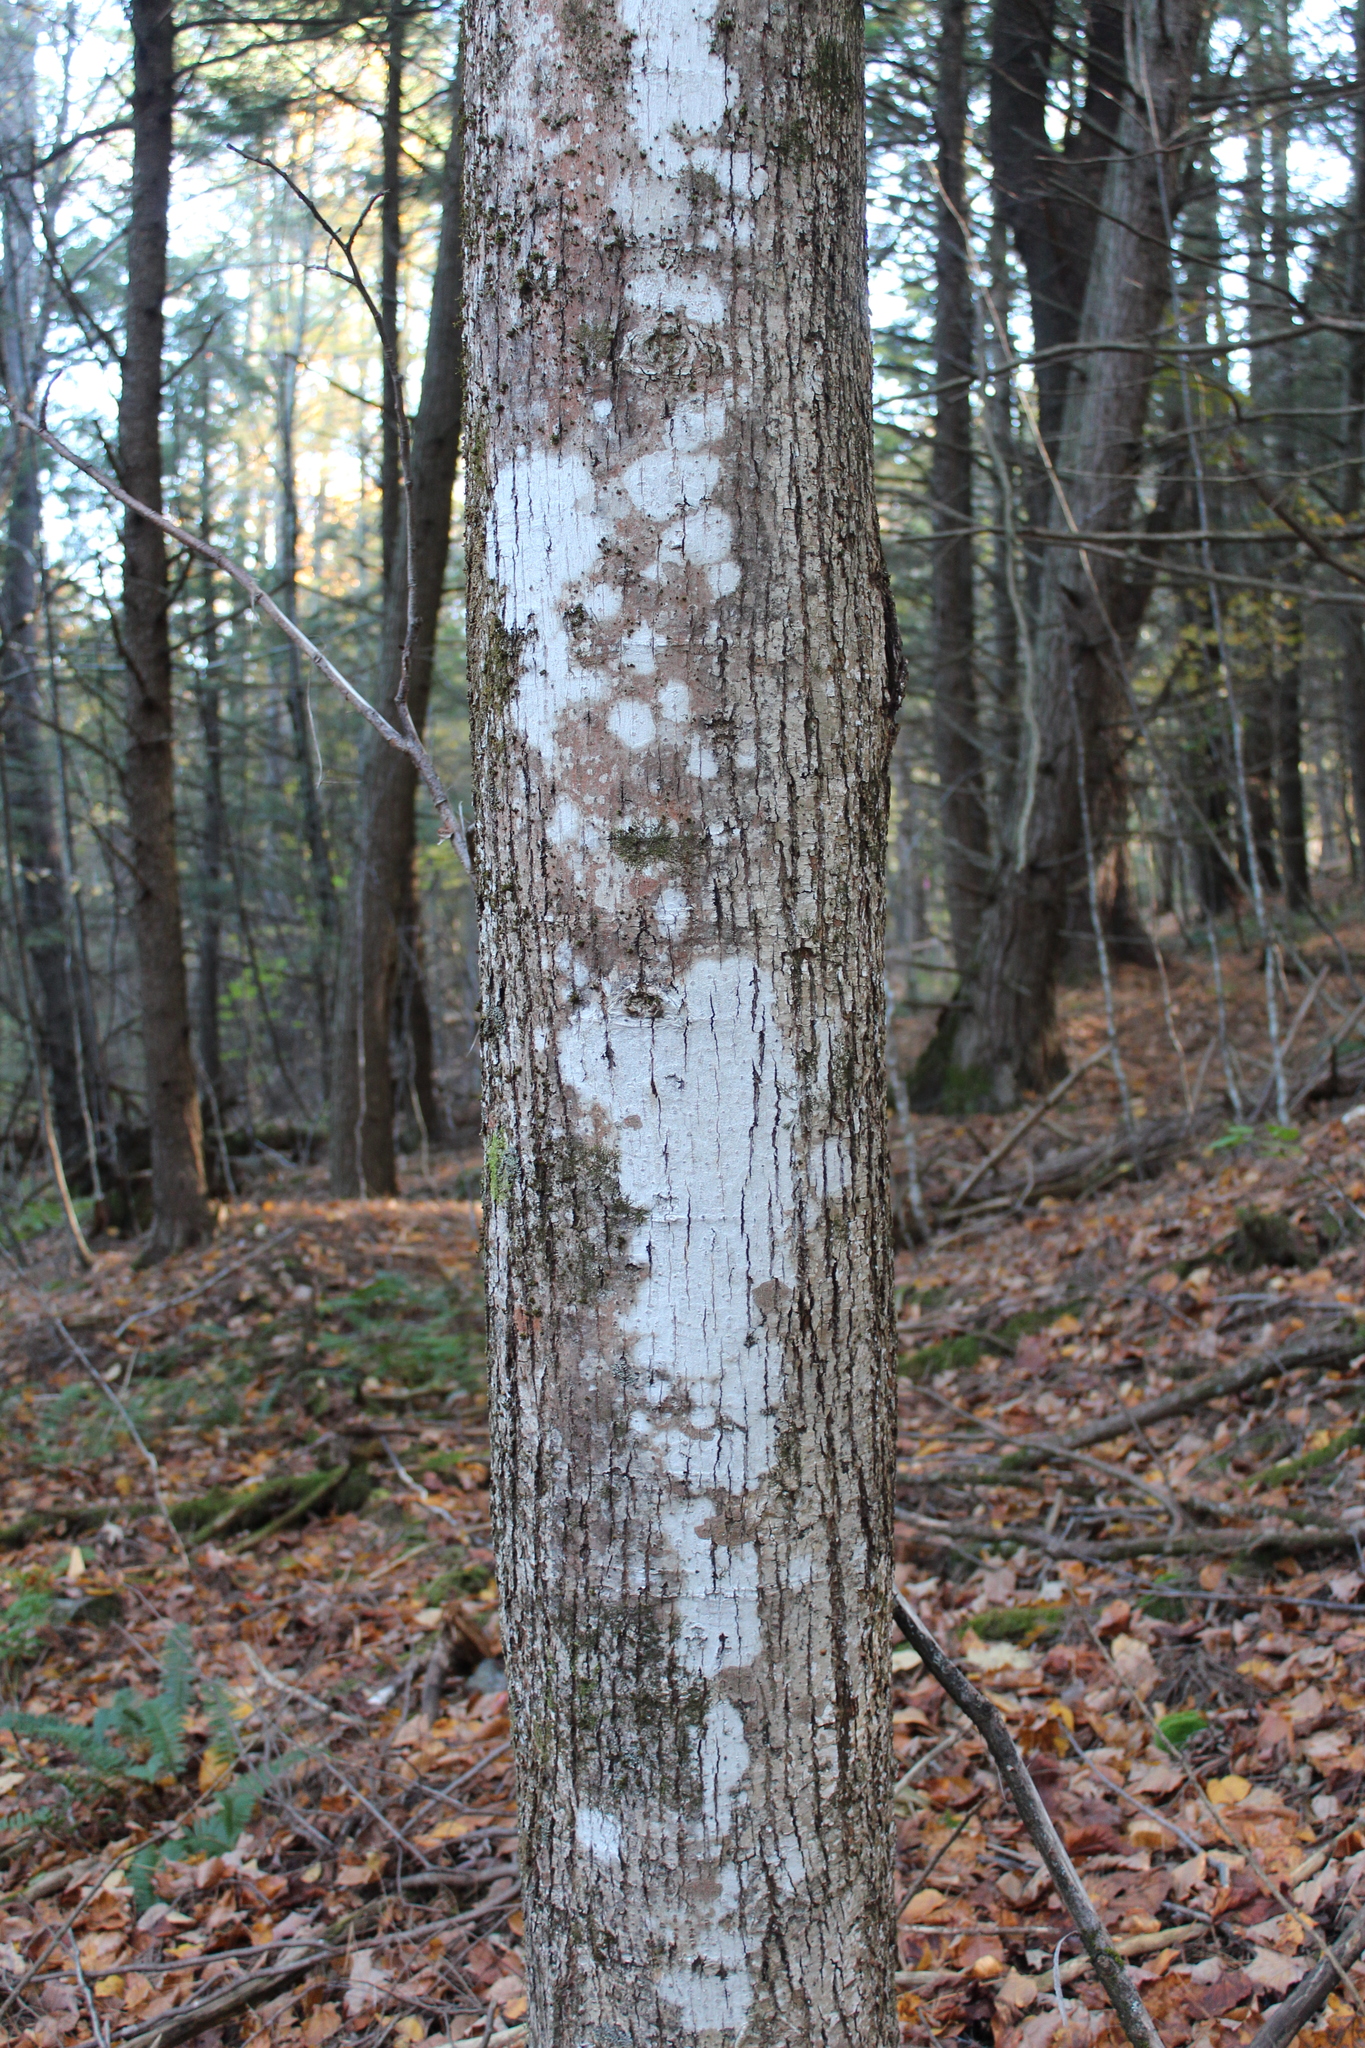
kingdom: Plantae
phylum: Tracheophyta
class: Magnoliopsida
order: Malvales
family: Malvaceae
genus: Tilia
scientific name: Tilia americana
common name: Basswood
